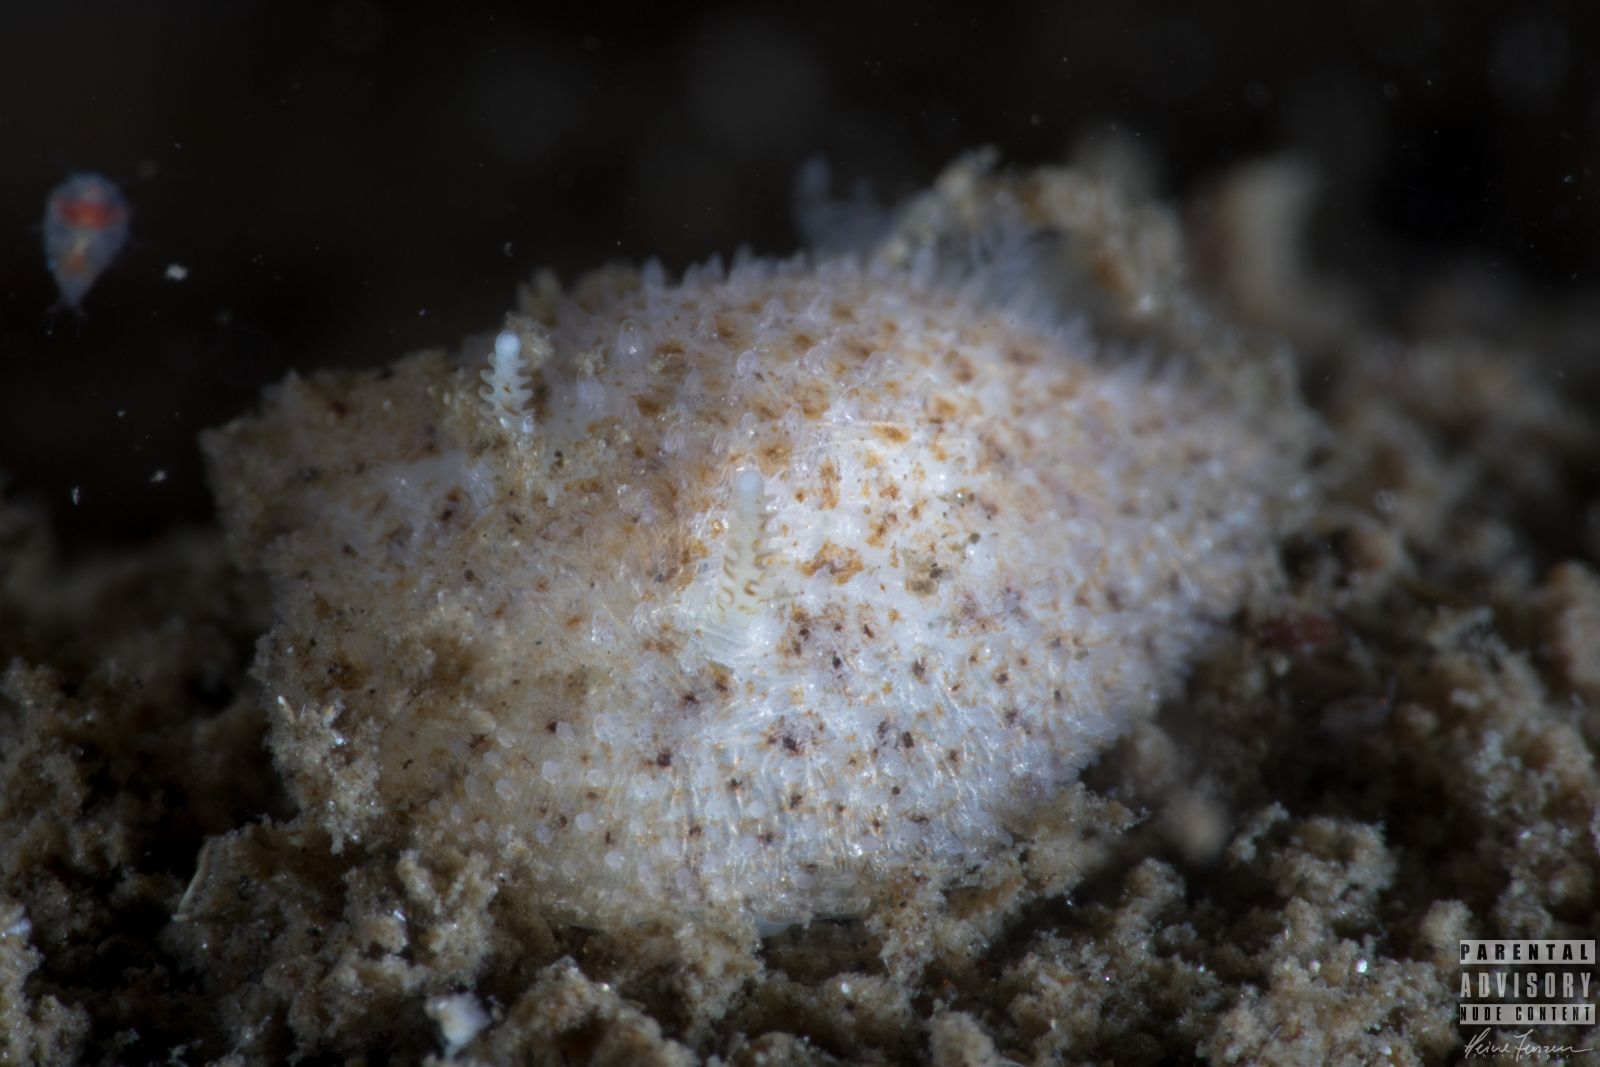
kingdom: Animalia
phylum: Mollusca
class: Gastropoda
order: Nudibranchia
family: Onchidorididae
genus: Idaliadoris
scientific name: Idaliadoris depressa
